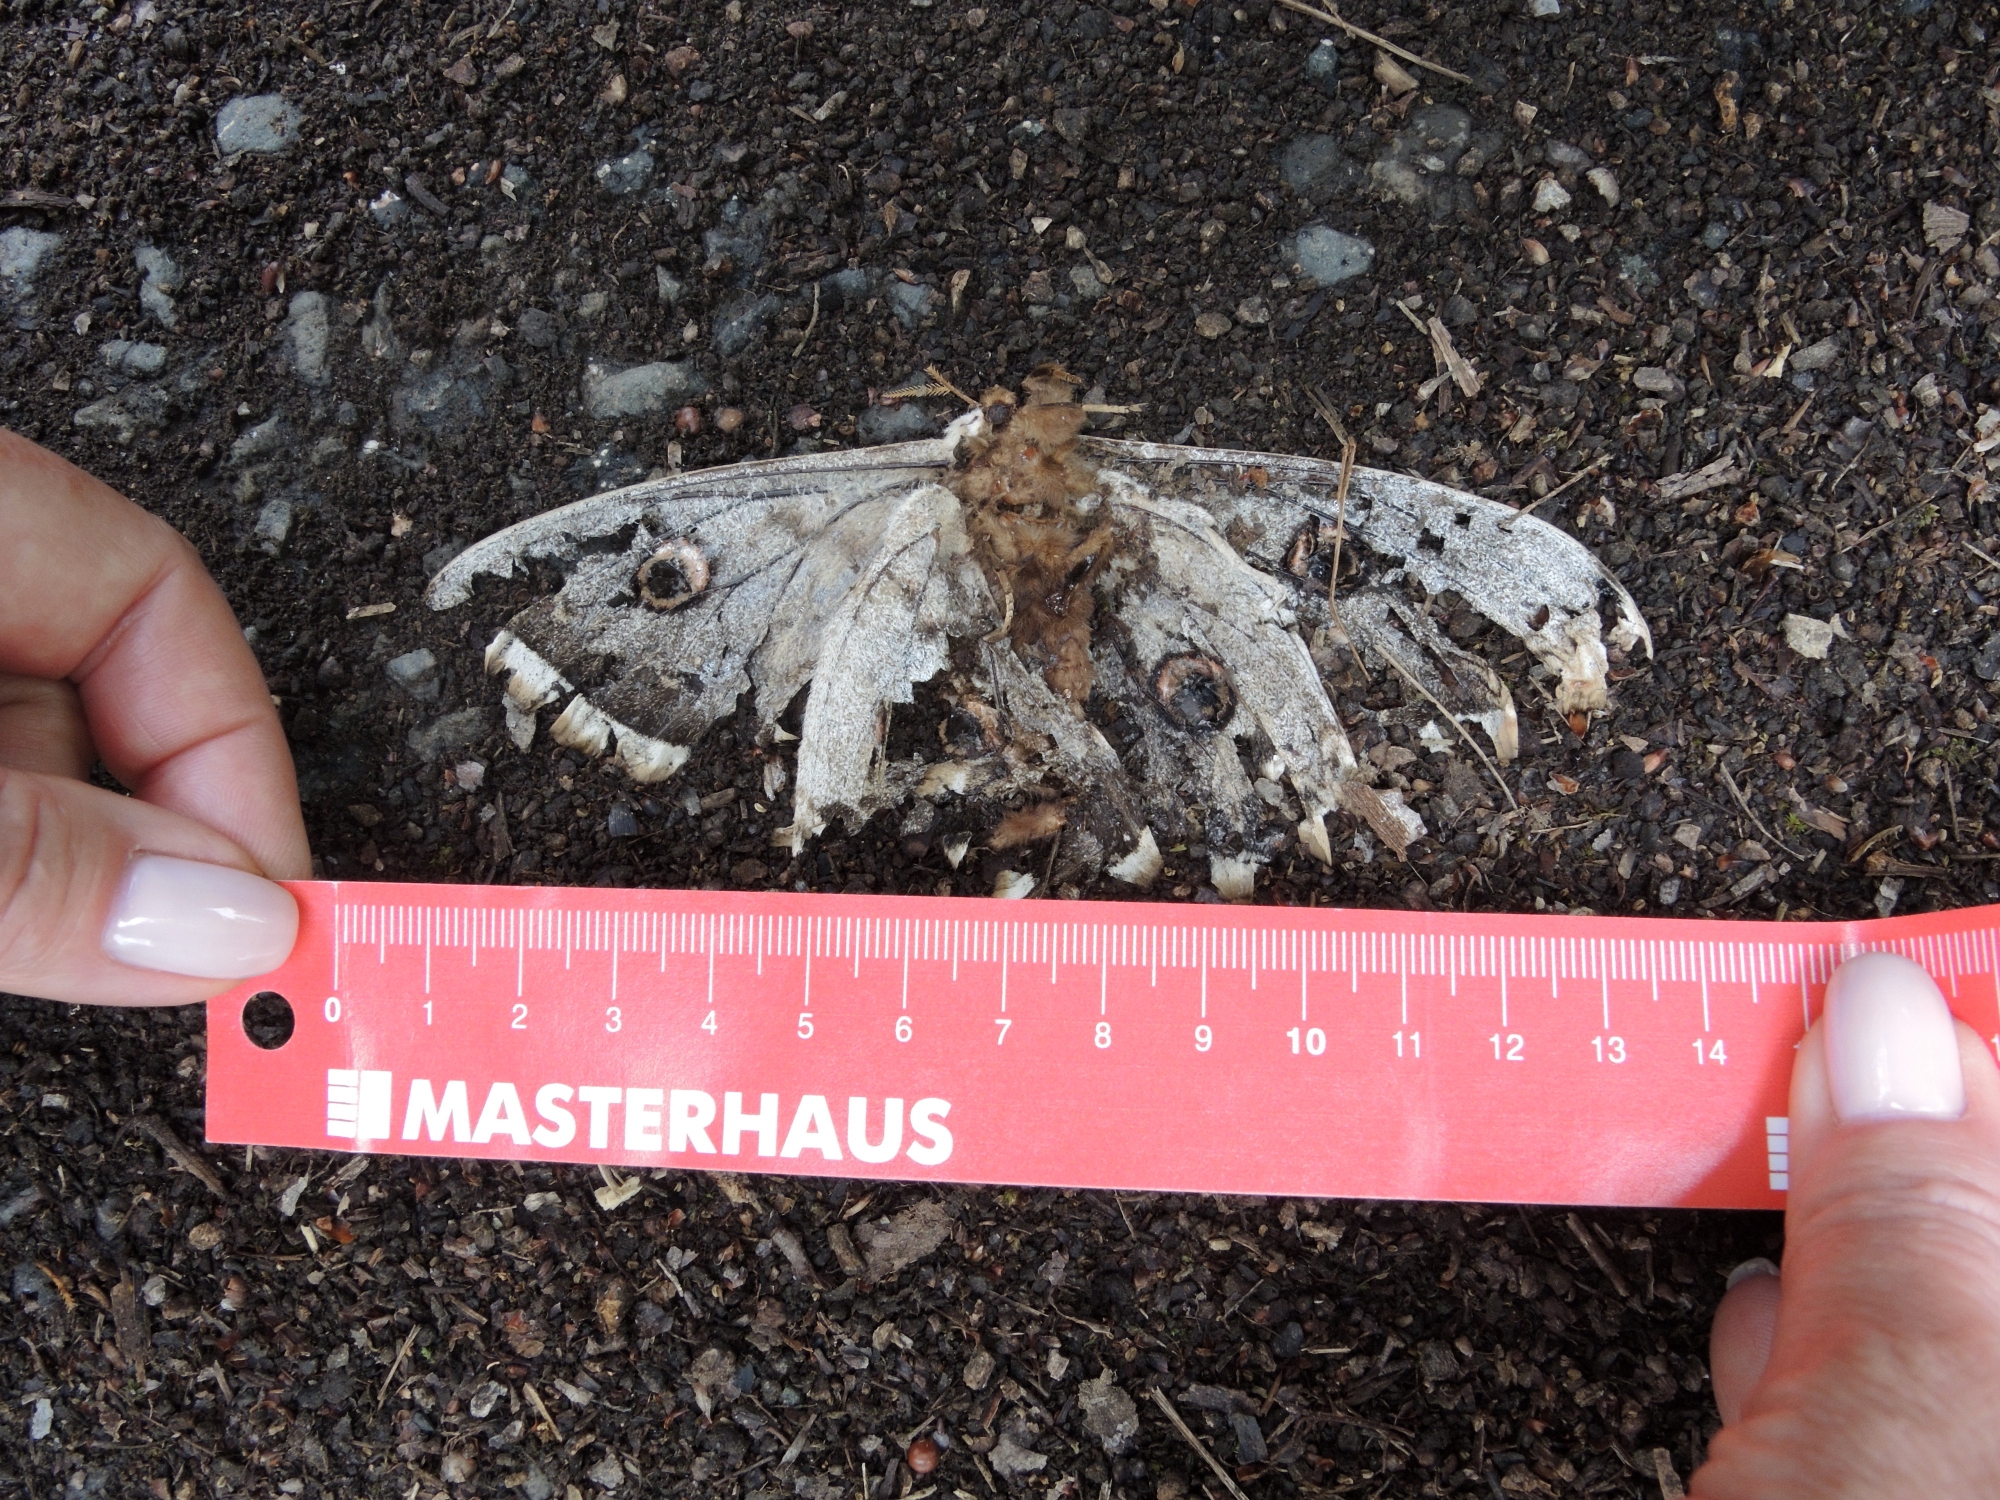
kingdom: Animalia
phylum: Arthropoda
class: Insecta
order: Lepidoptera
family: Saturniidae
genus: Saturnia
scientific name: Saturnia pyri
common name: Great peacock moth
